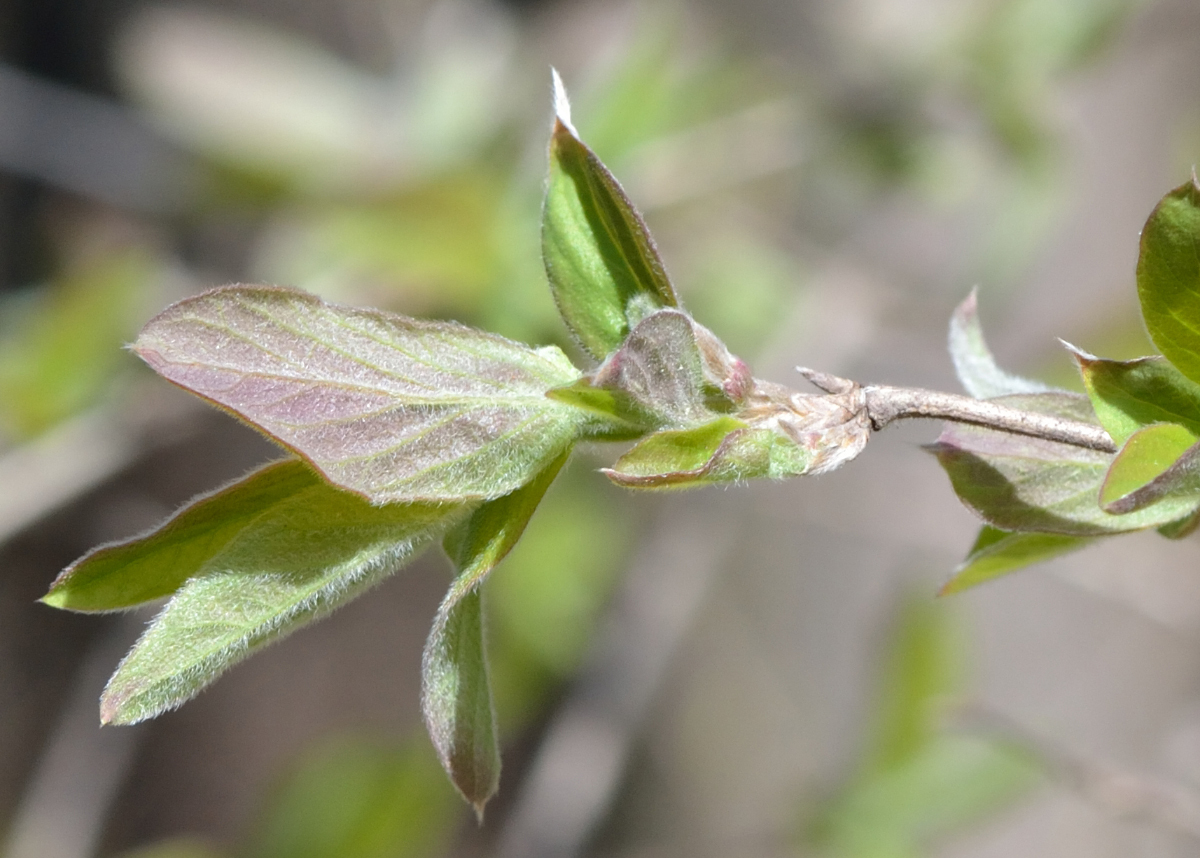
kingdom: Plantae
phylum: Tracheophyta
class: Magnoliopsida
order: Dipsacales
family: Caprifoliaceae
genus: Lonicera
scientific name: Lonicera xylosteum
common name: Fly honeysuckle
